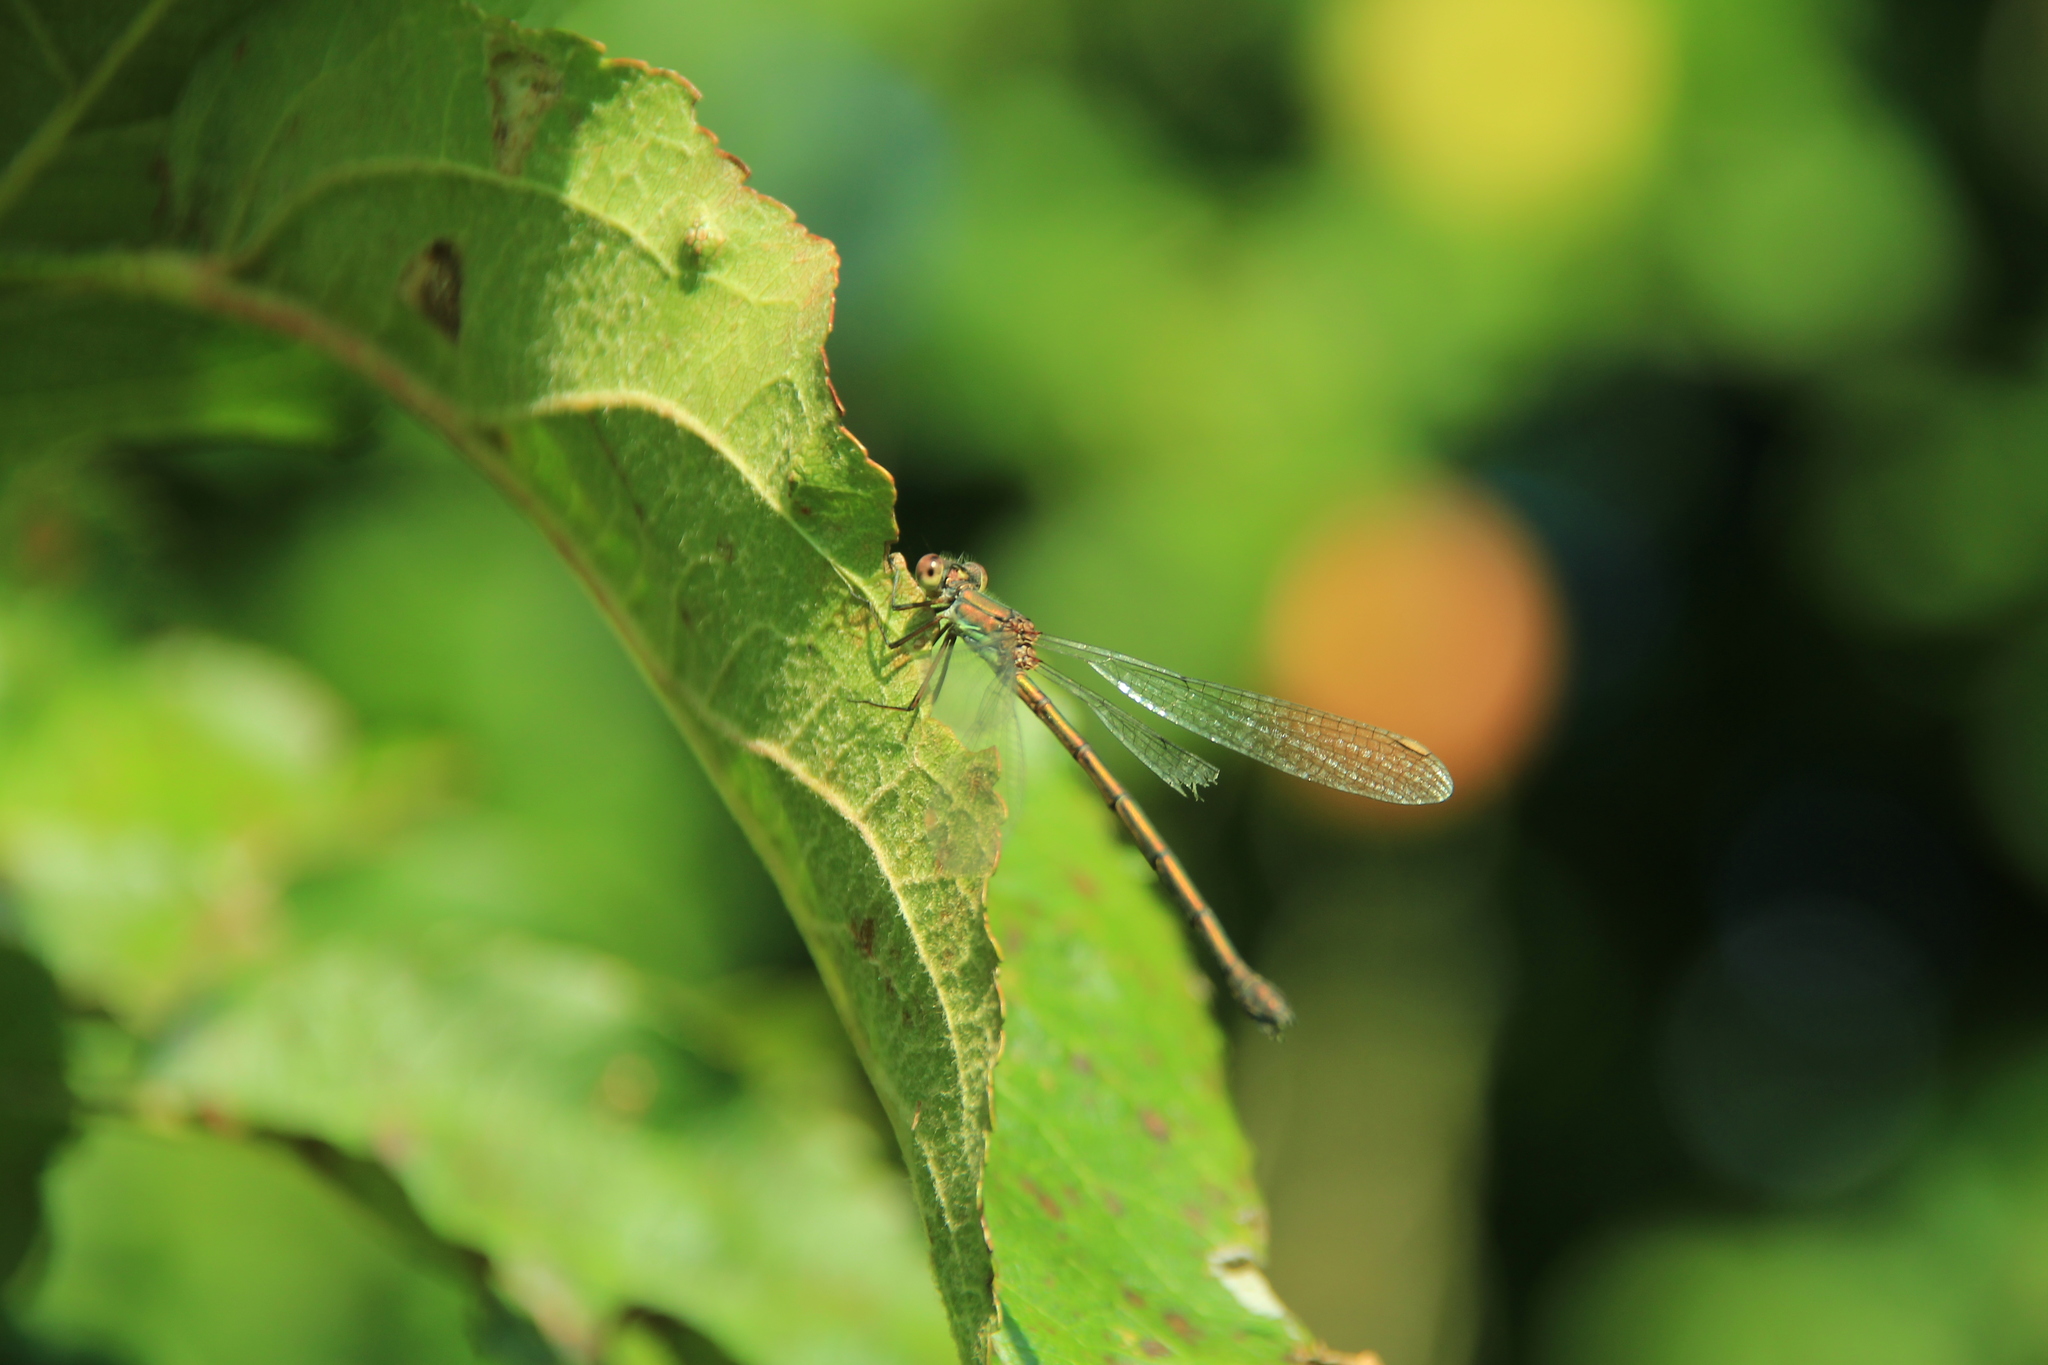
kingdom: Animalia
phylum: Arthropoda
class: Insecta
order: Odonata
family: Lestidae
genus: Chalcolestes
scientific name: Chalcolestes viridis
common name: Green emerald damselfly
